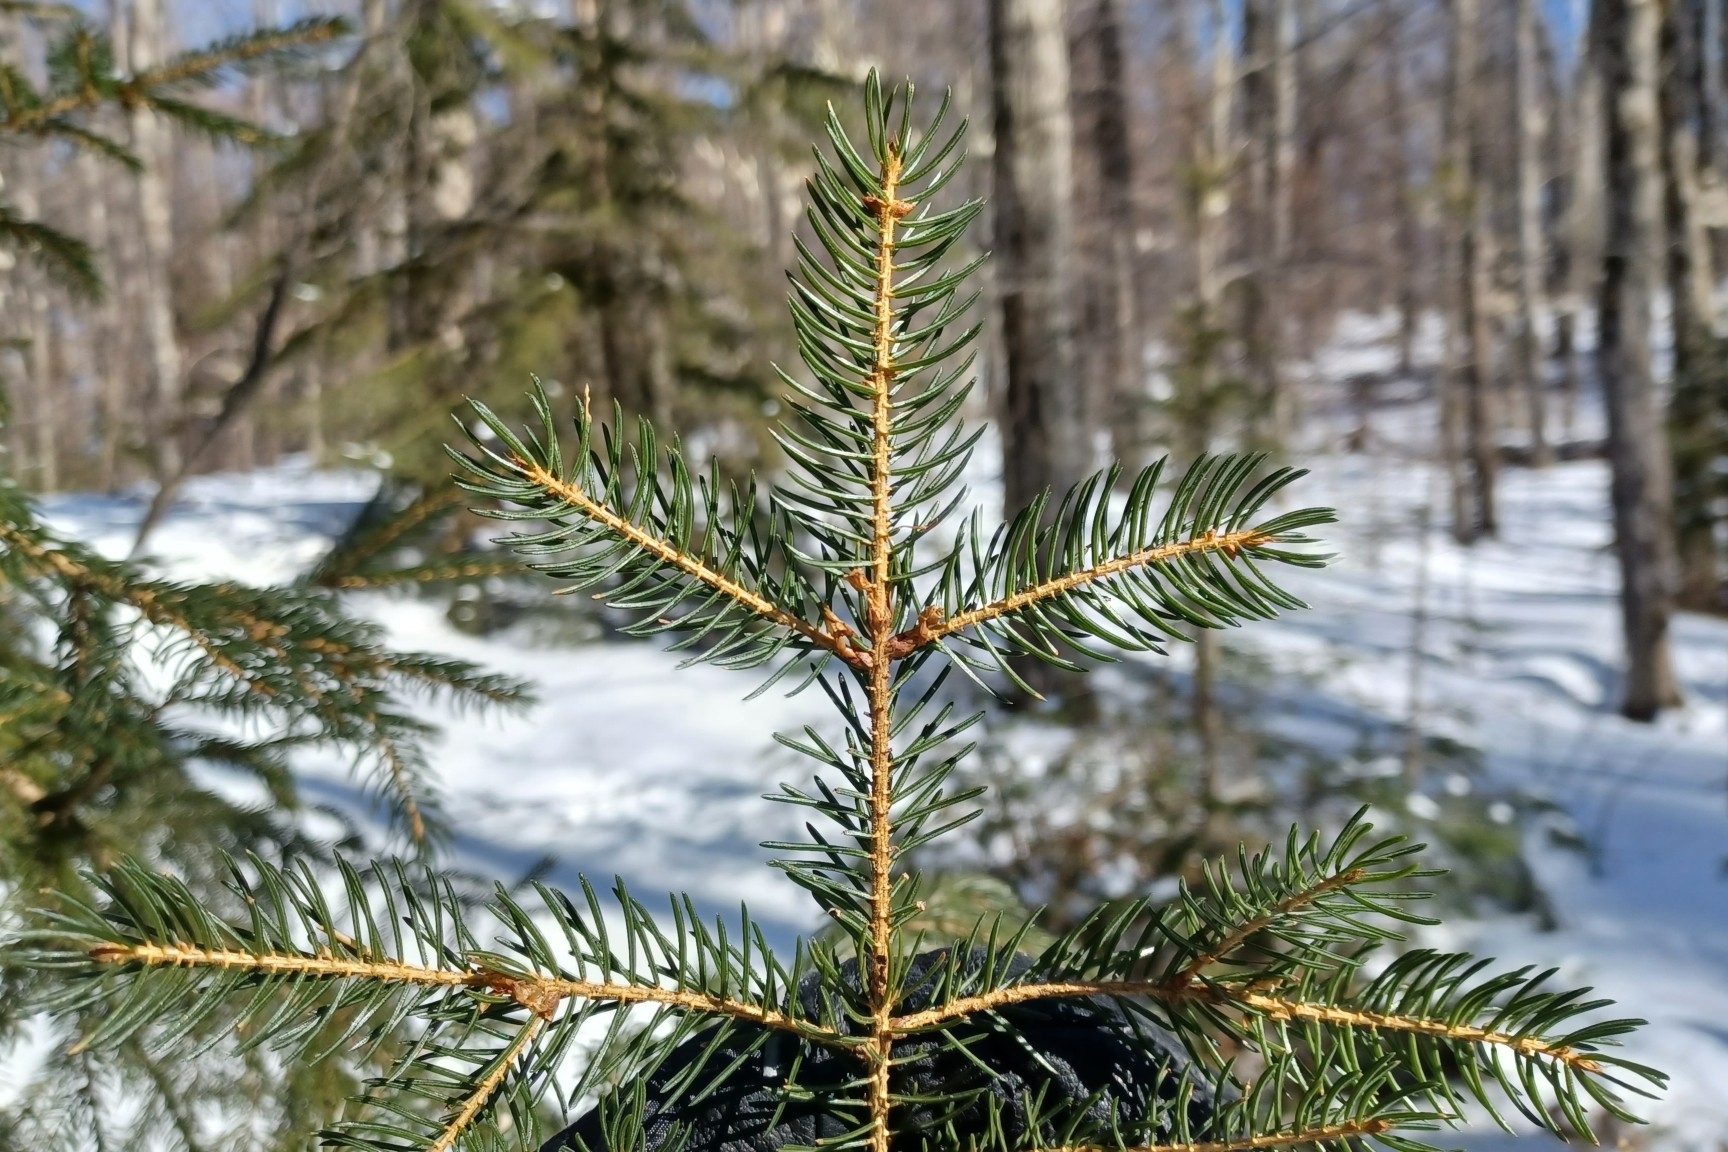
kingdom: Plantae
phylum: Tracheophyta
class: Pinopsida
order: Pinales
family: Pinaceae
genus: Picea
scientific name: Picea rubens
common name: Red spruce
